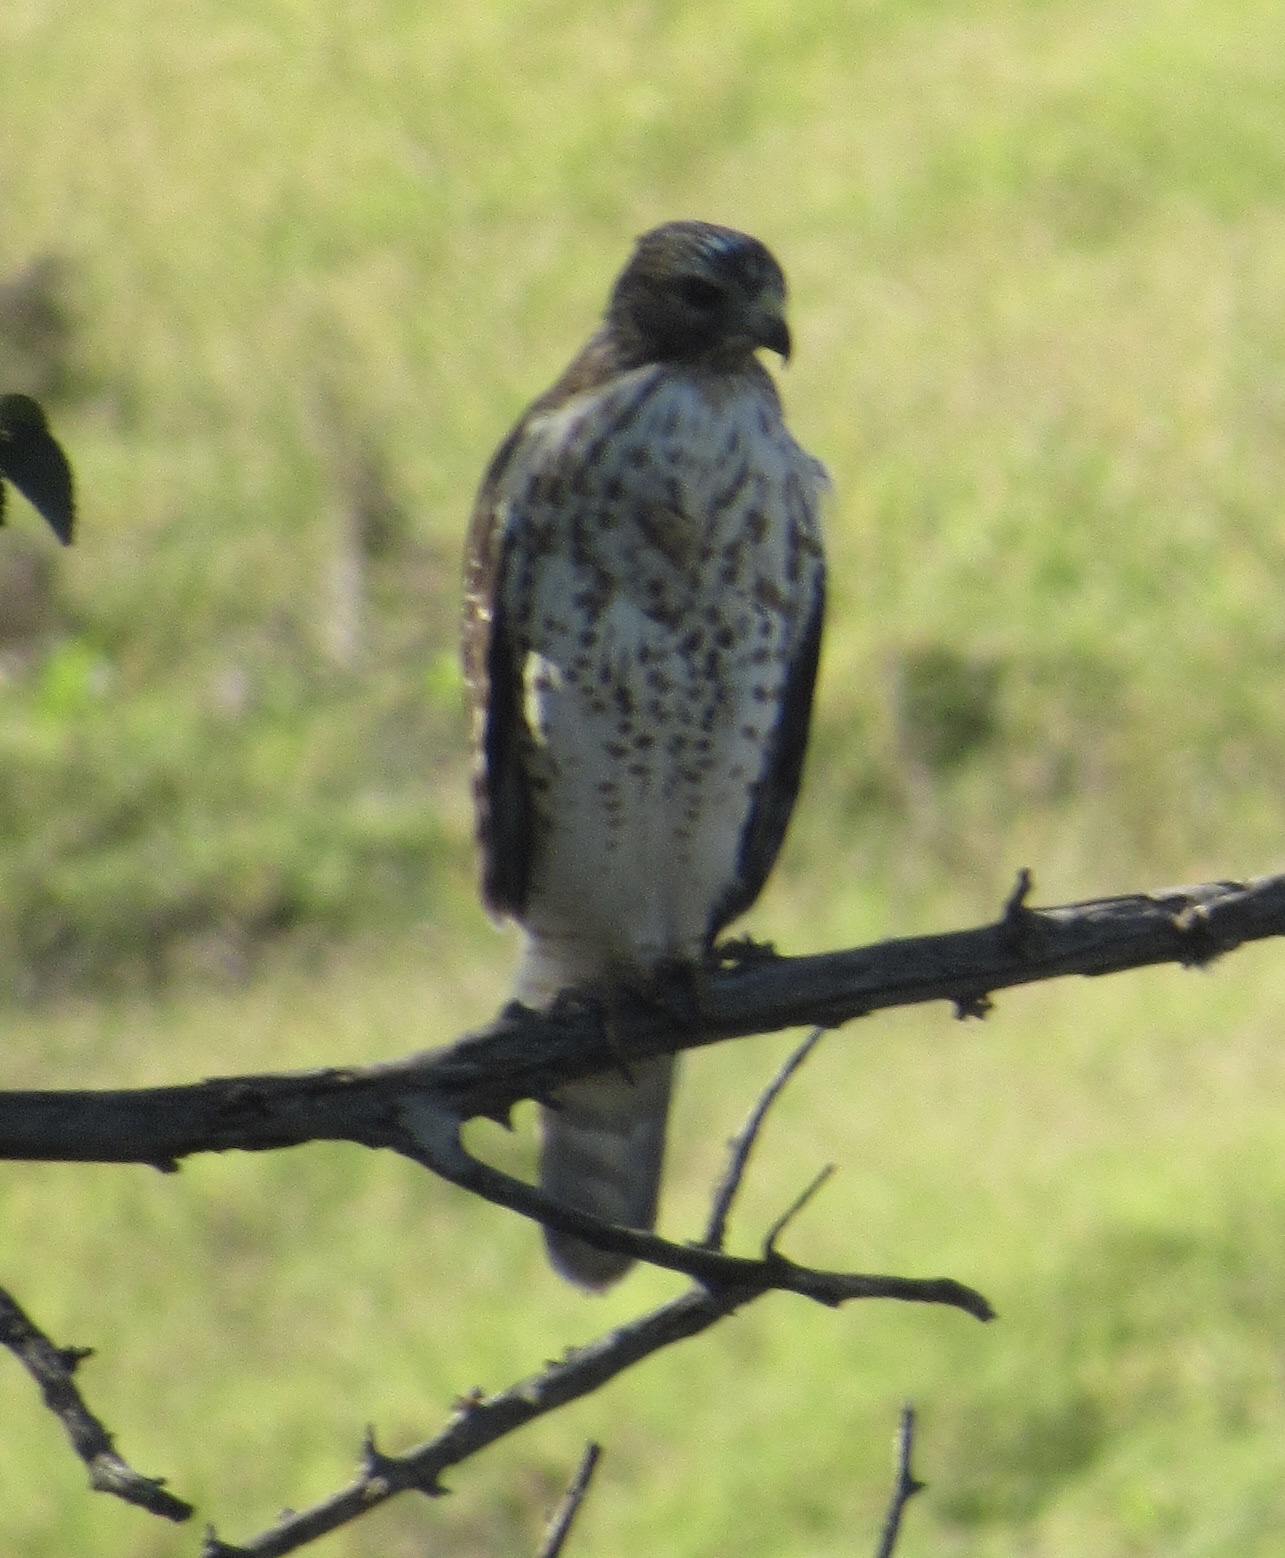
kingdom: Animalia
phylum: Chordata
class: Aves
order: Accipitriformes
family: Accipitridae
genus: Buteo
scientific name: Buteo lineatus
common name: Red-shouldered hawk
